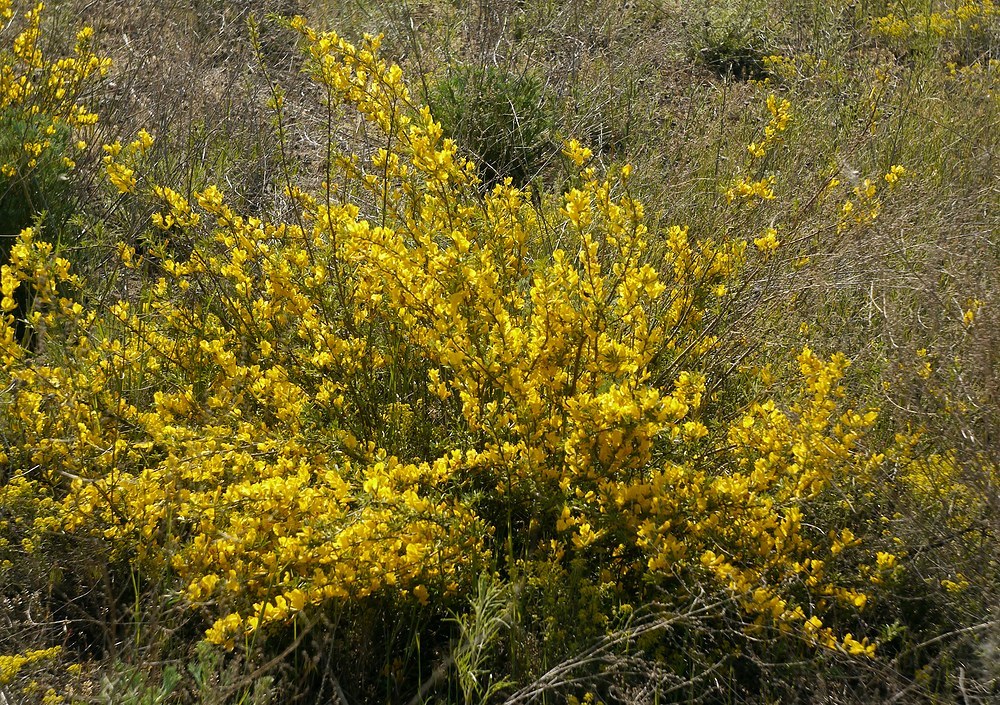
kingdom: Plantae
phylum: Tracheophyta
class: Magnoliopsida
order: Fabales
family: Fabaceae
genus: Chamaecytisus
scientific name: Chamaecytisus borysthenicus
